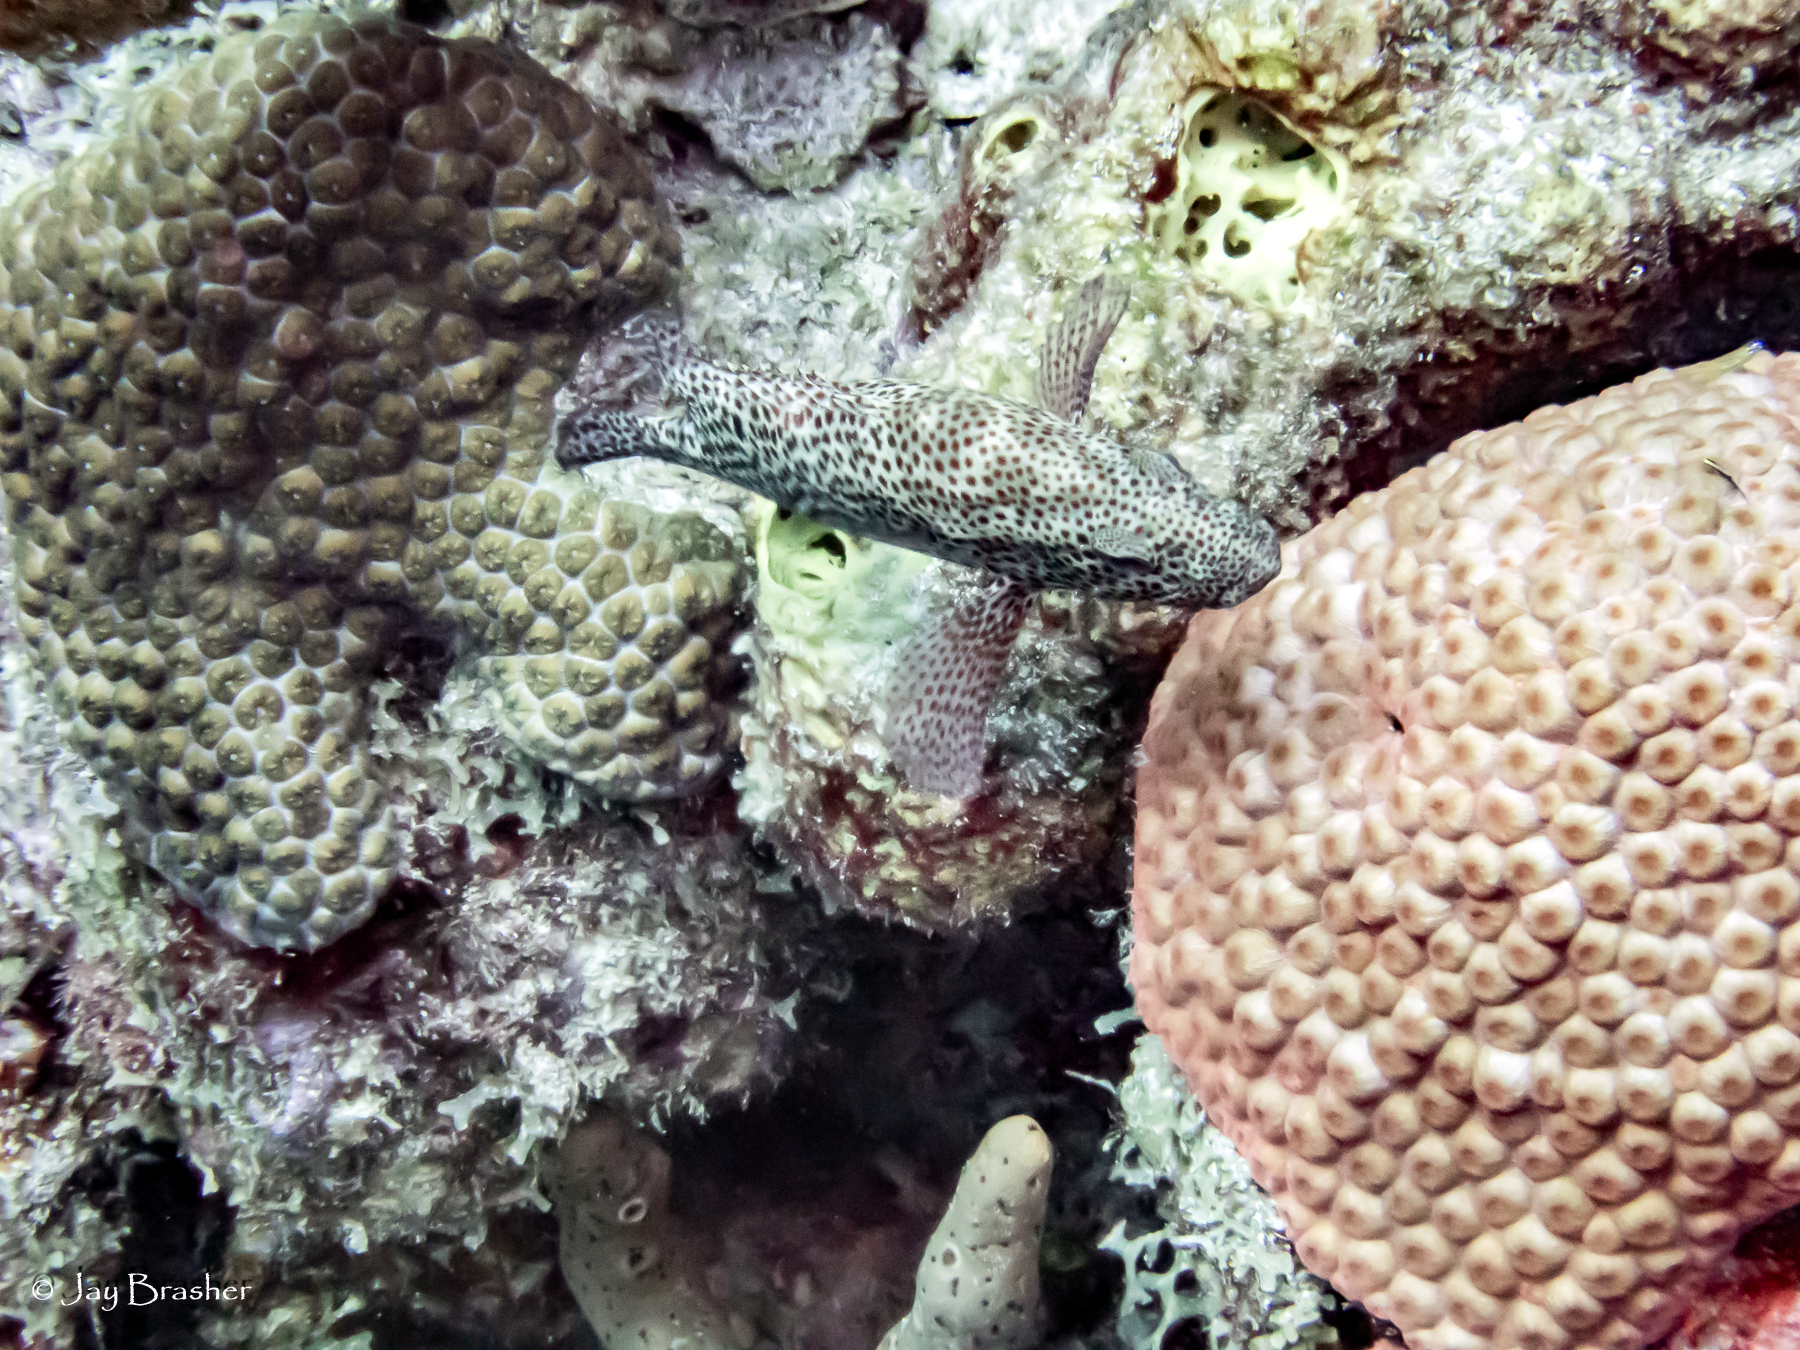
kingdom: Animalia
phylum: Chordata
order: Perciformes
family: Serranidae
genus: Cephalopholis
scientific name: Cephalopholis cruentata
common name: Graysby
